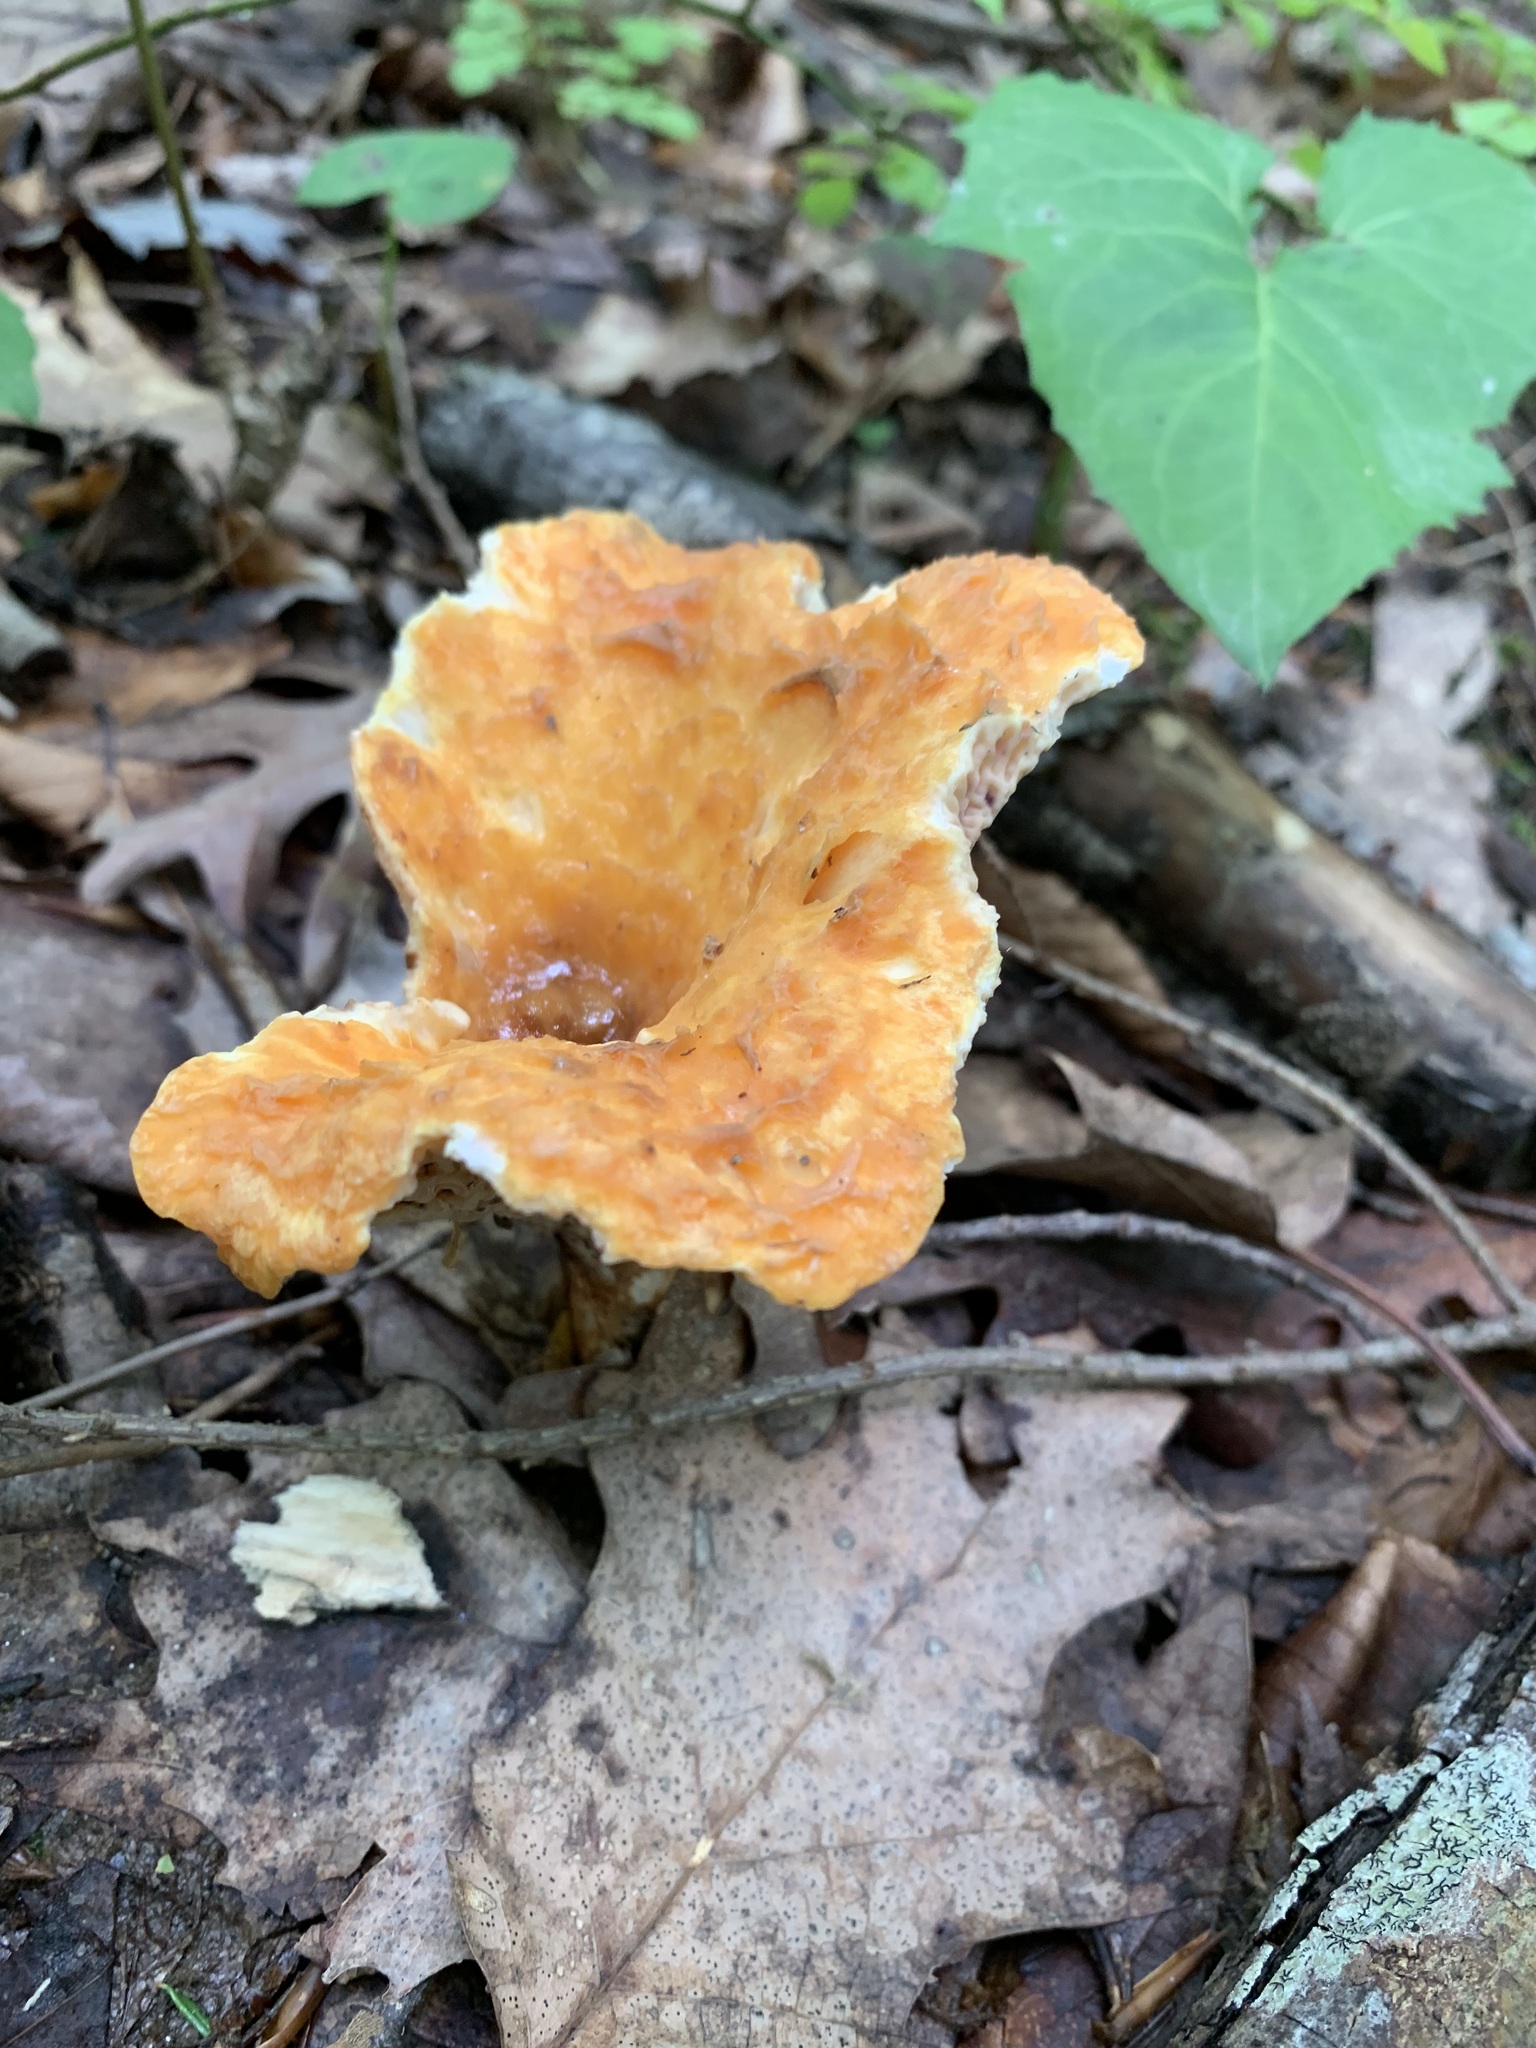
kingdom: Fungi
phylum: Basidiomycota
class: Agaricomycetes
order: Gomphales
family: Gomphaceae
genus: Turbinellus
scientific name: Turbinellus floccosus
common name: Scaly chanterelle
